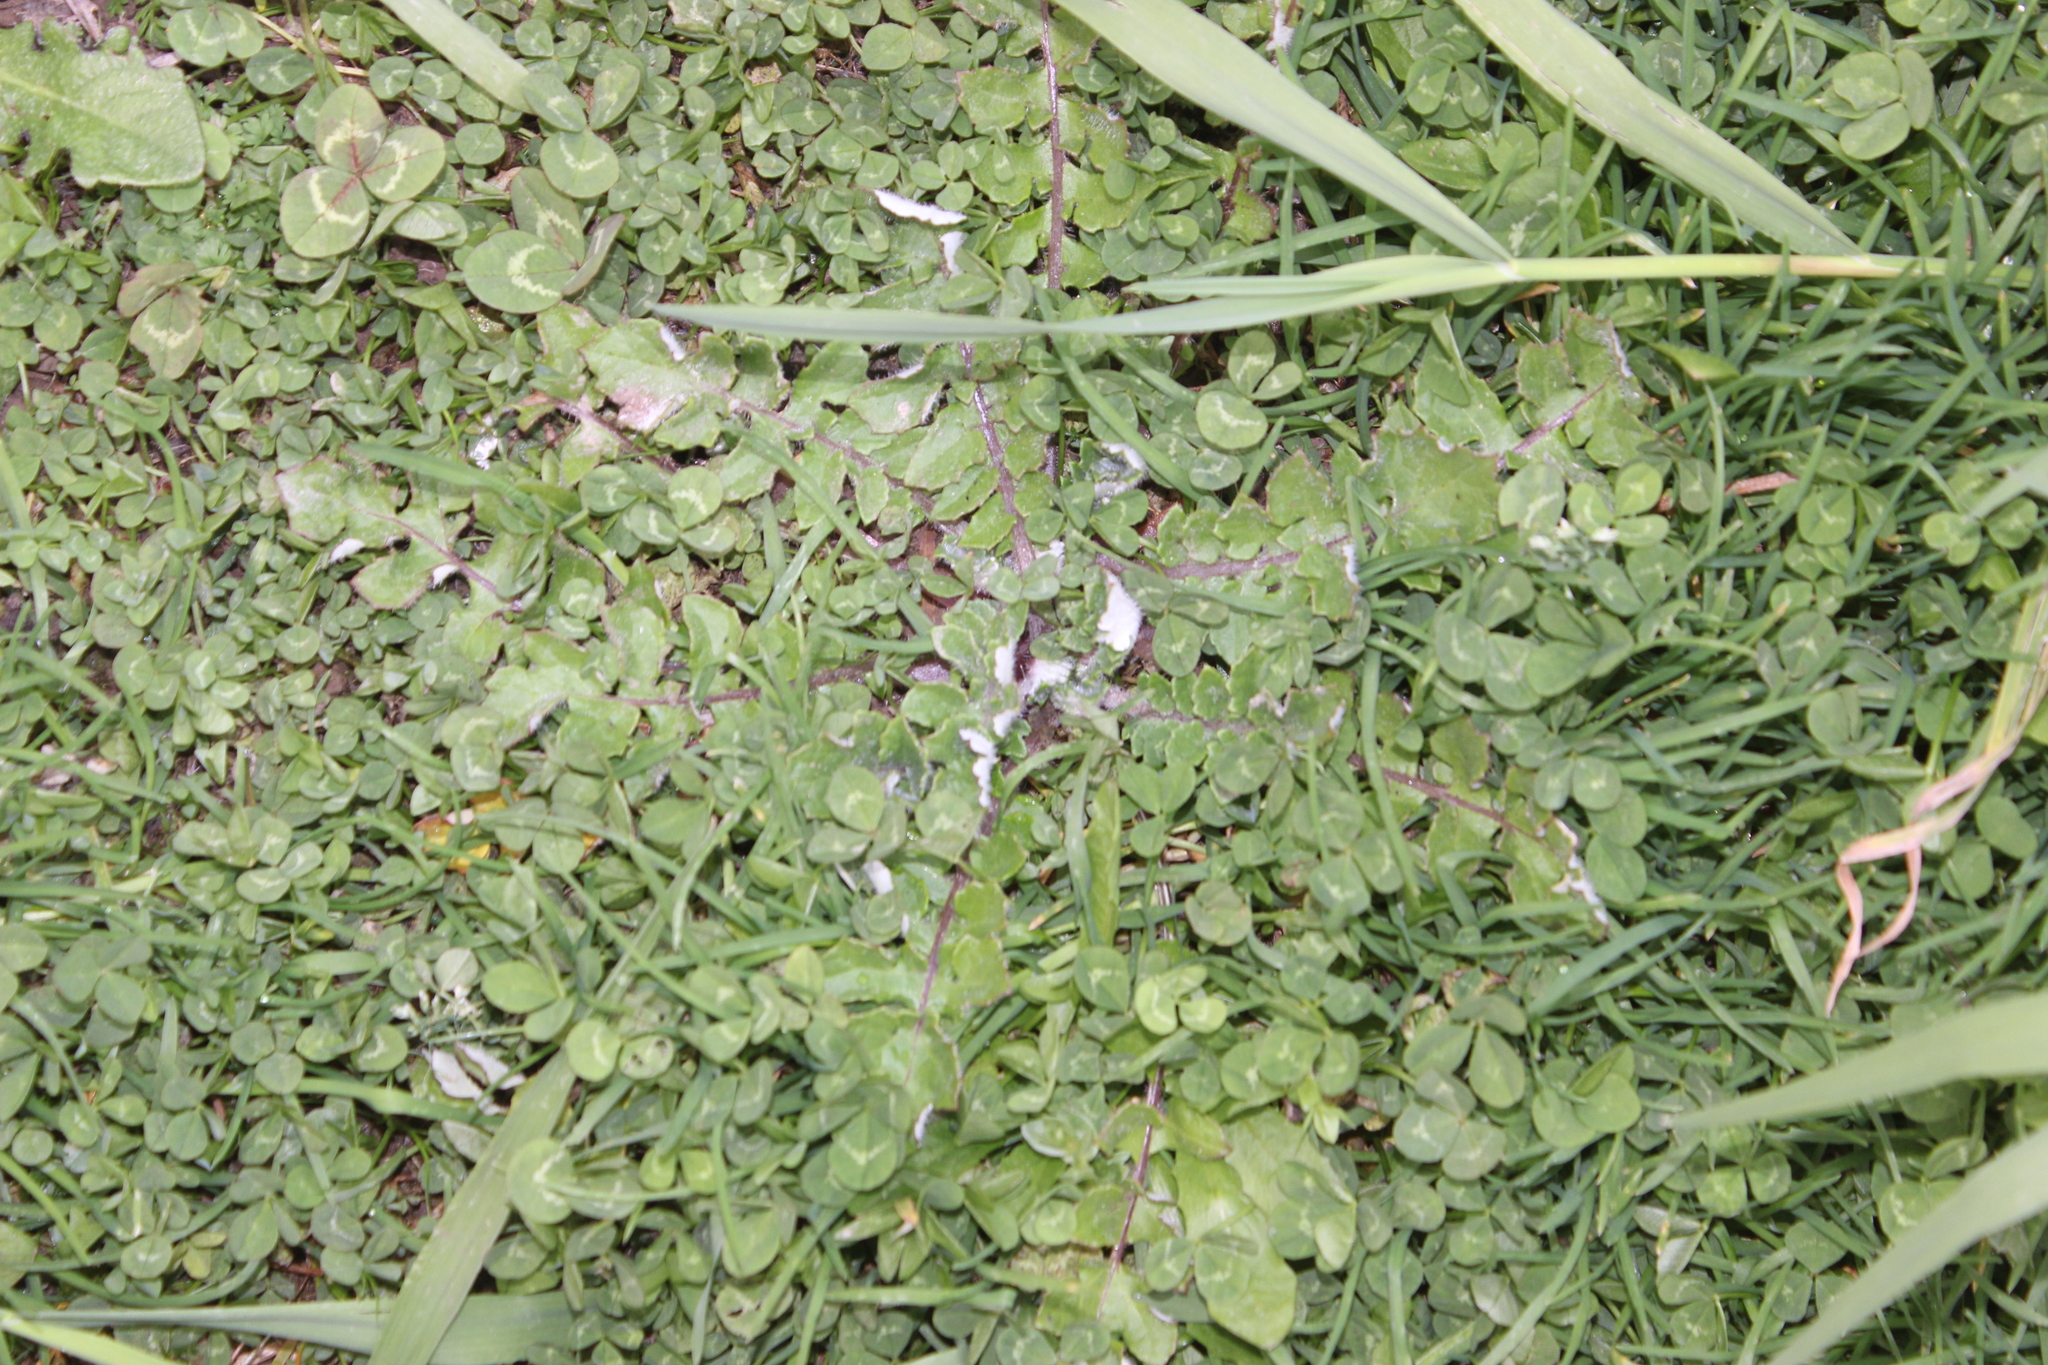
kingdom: Plantae
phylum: Tracheophyta
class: Magnoliopsida
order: Asterales
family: Asteraceae
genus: Arctotheca
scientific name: Arctotheca calendula
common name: Capeweed
